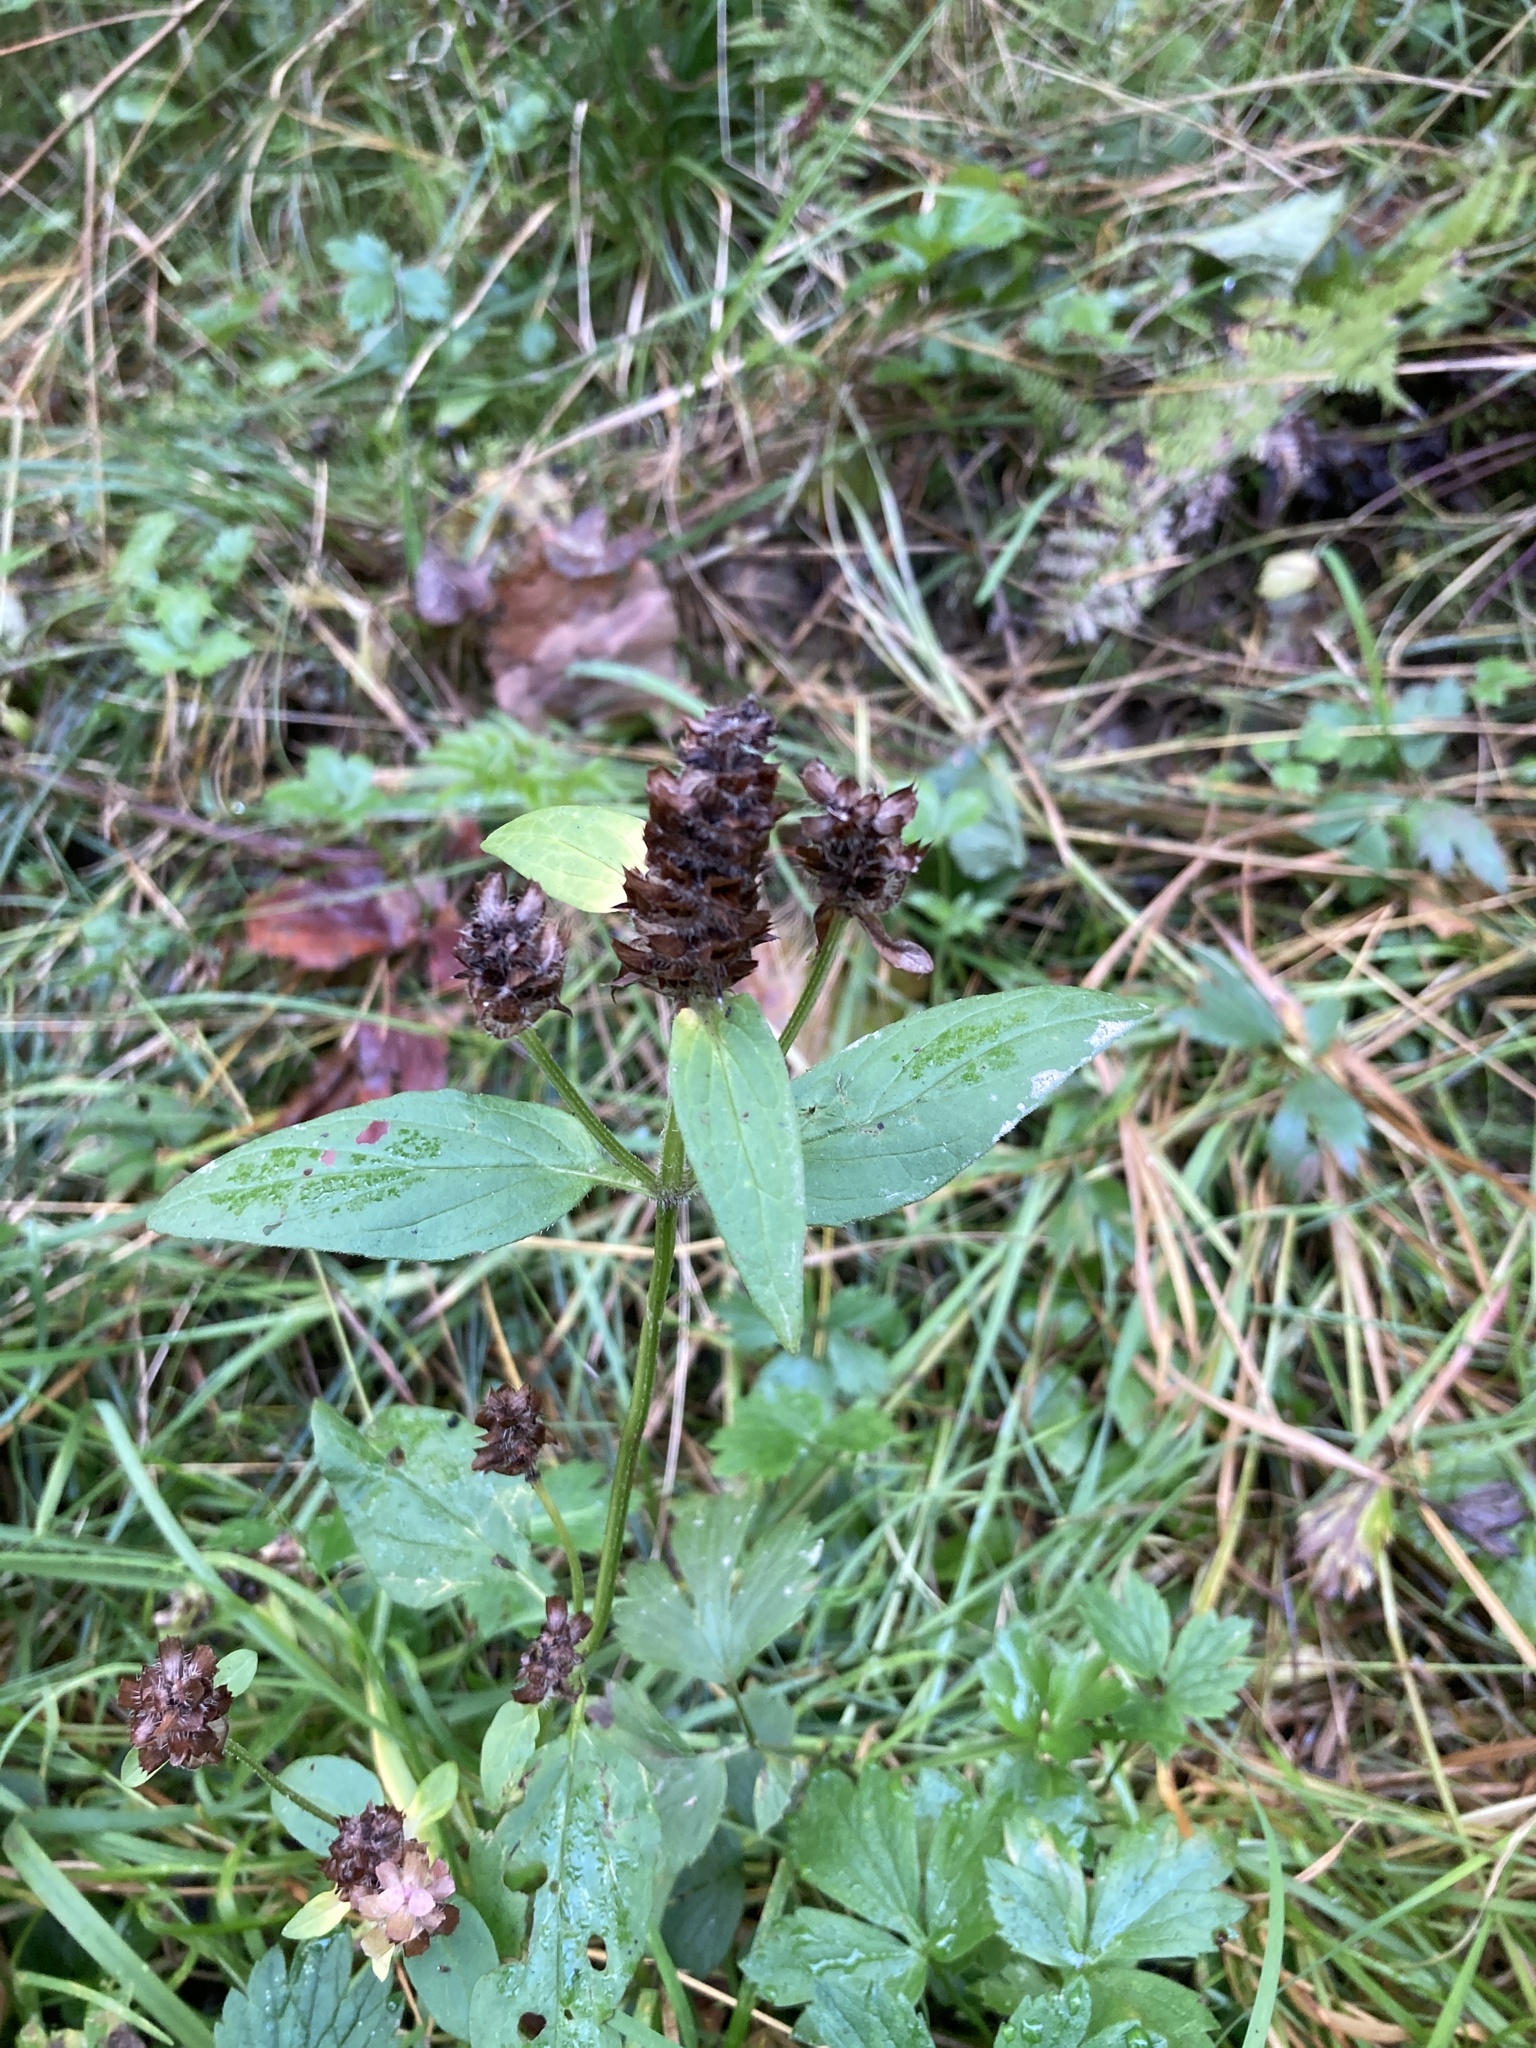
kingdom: Plantae
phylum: Tracheophyta
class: Magnoliopsida
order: Lamiales
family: Lamiaceae
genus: Prunella
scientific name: Prunella vulgaris
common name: Heal-all
